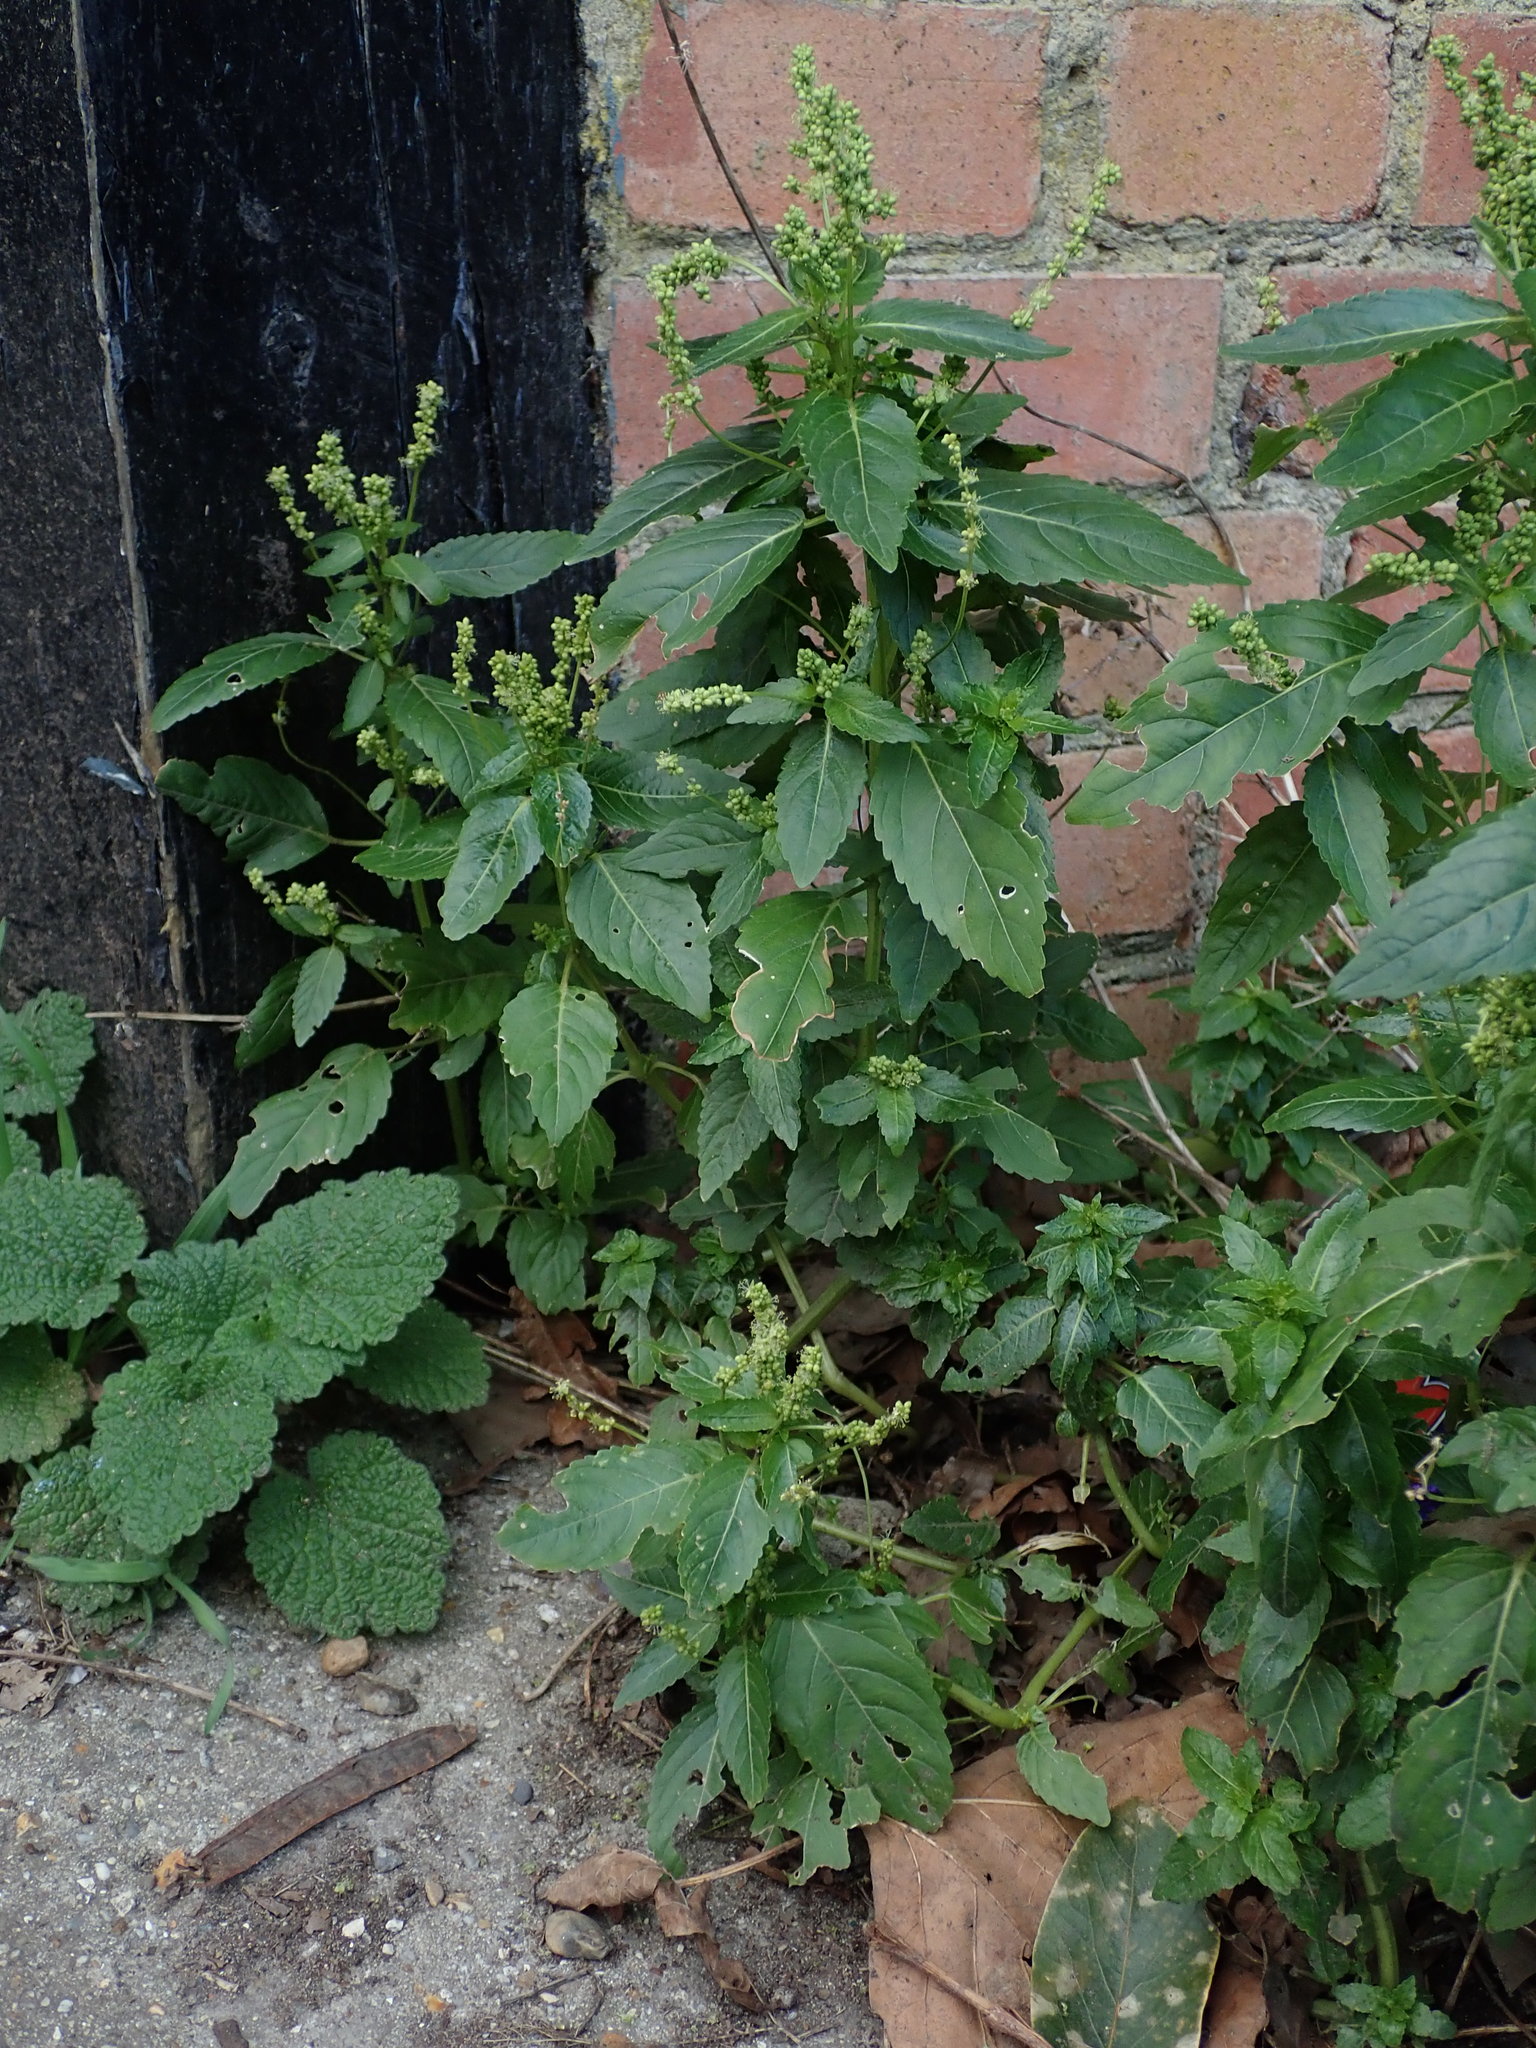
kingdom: Plantae
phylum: Tracheophyta
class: Magnoliopsida
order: Malpighiales
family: Euphorbiaceae
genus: Mercurialis
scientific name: Mercurialis annua
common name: Annual mercury
